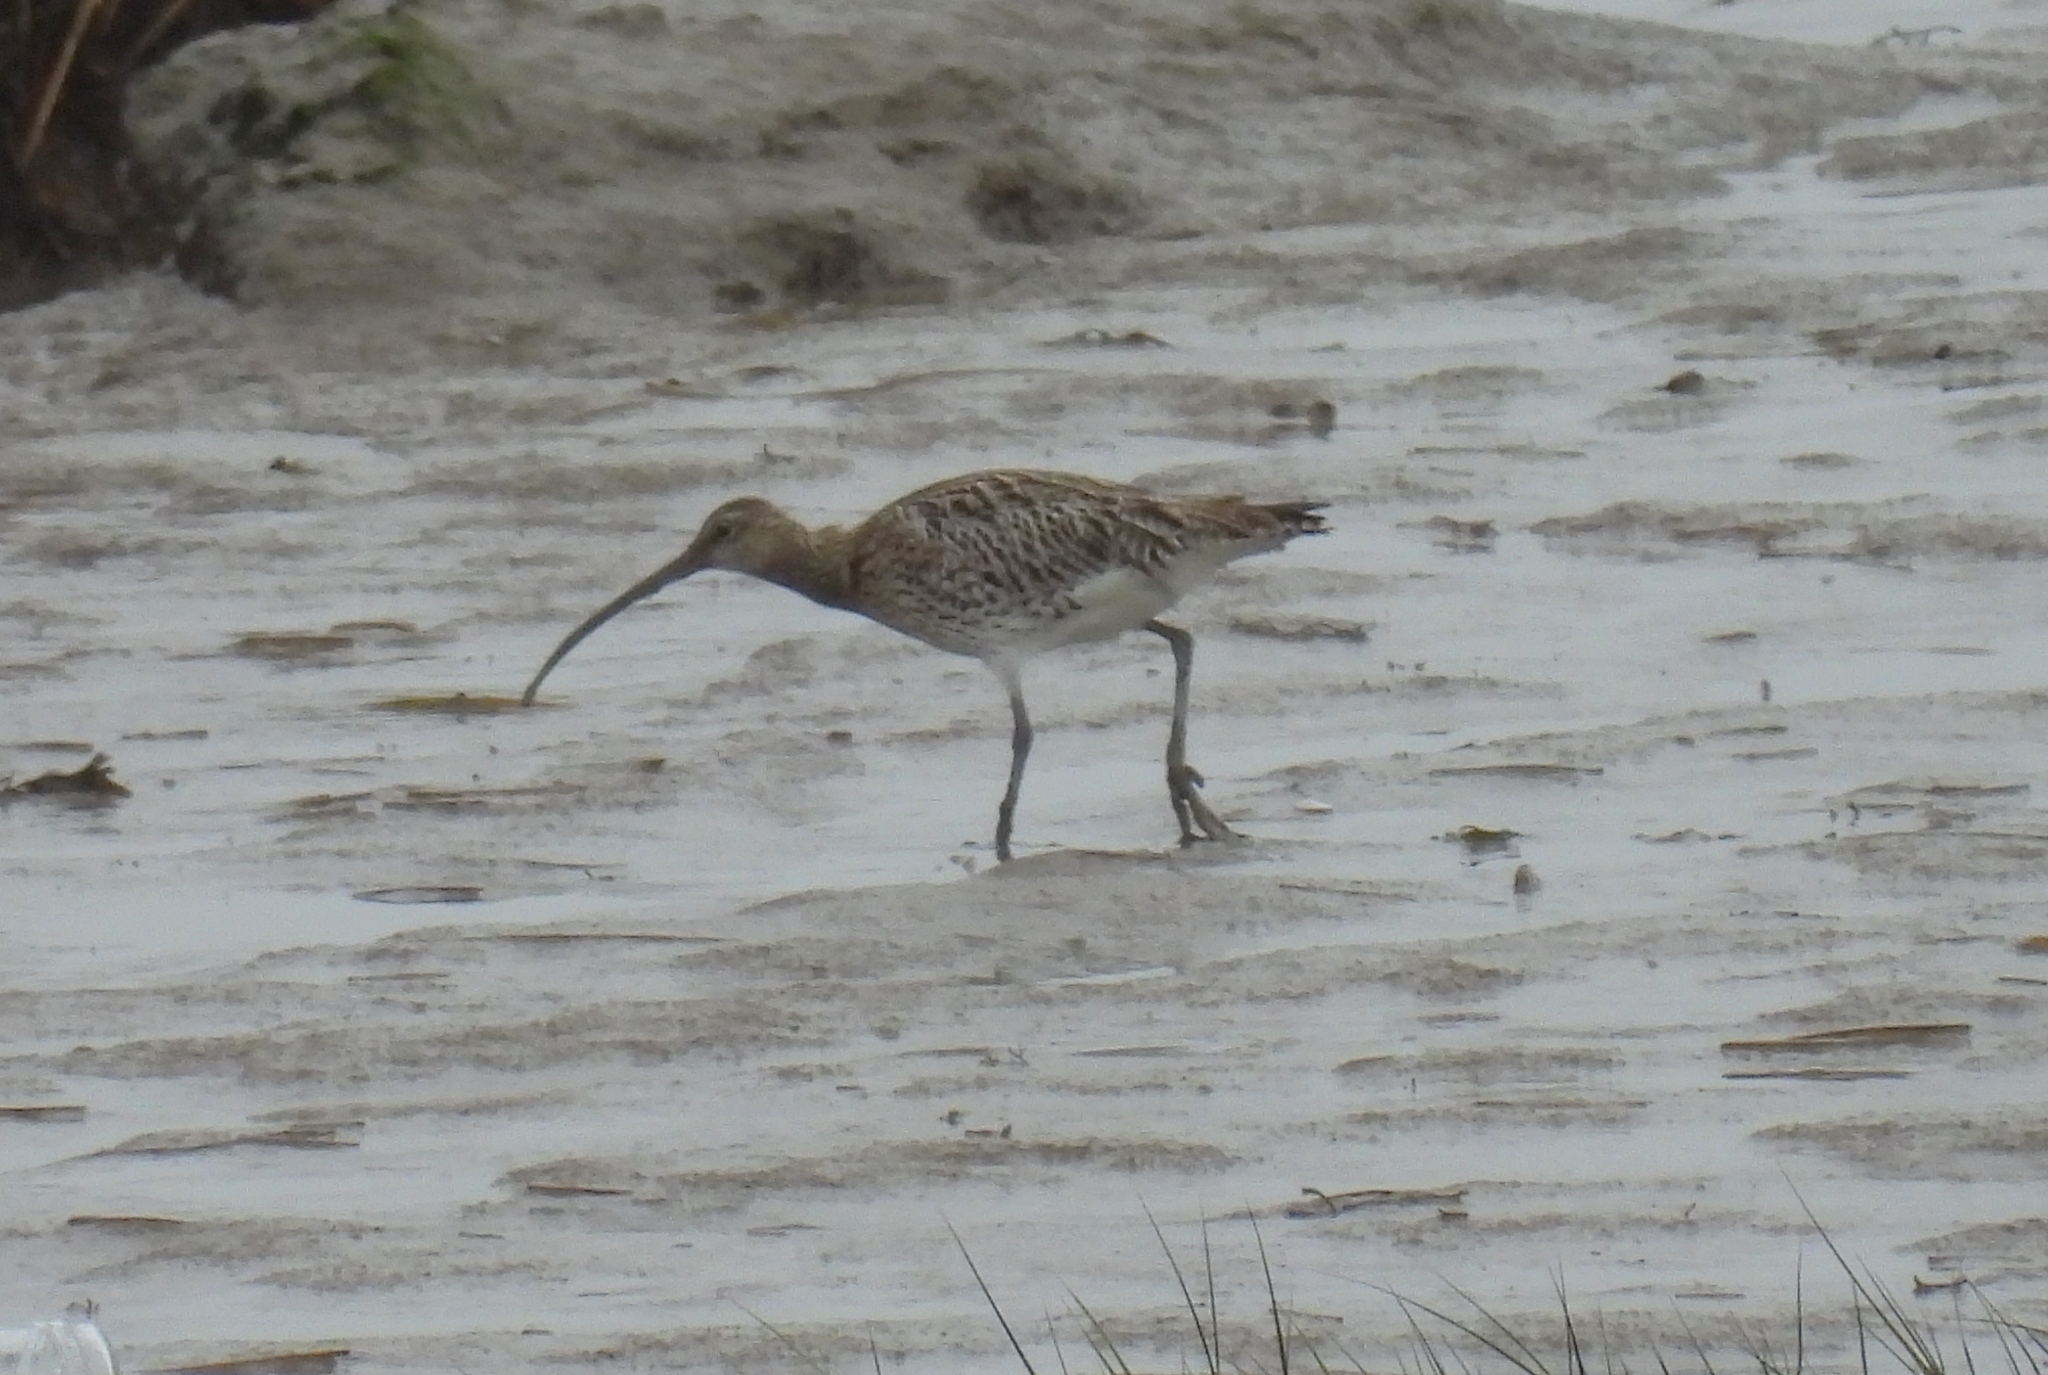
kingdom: Animalia
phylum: Chordata
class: Aves
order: Charadriiformes
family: Scolopacidae
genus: Numenius
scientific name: Numenius arquata
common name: Eurasian curlew
